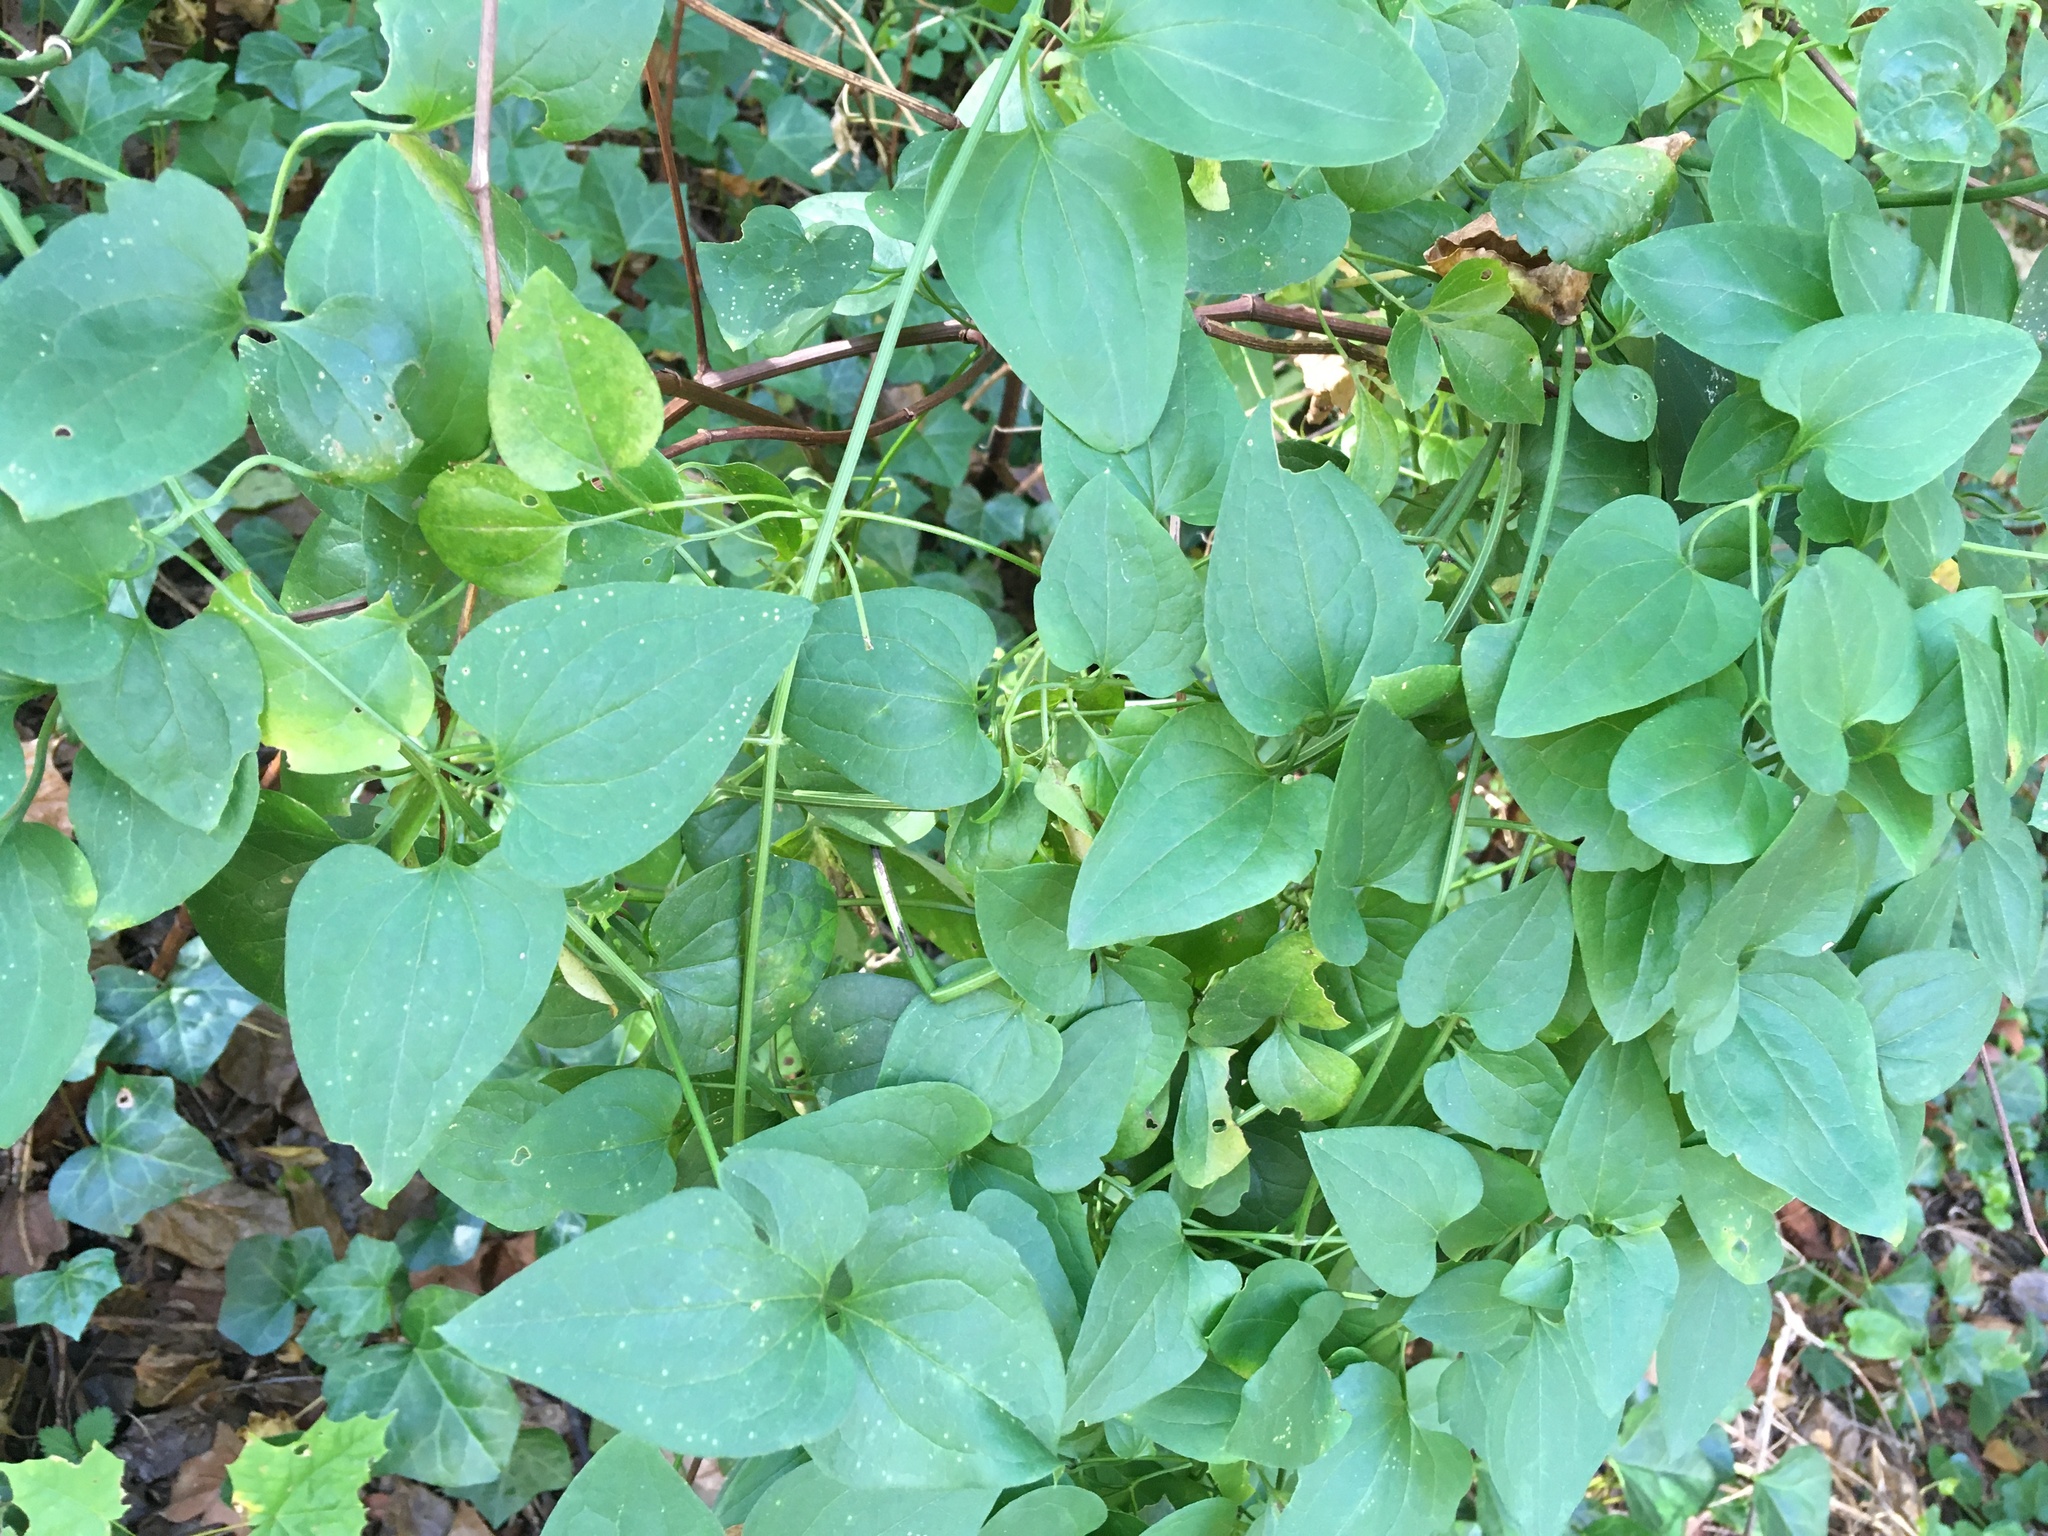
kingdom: Plantae
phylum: Tracheophyta
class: Magnoliopsida
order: Ranunculales
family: Ranunculaceae
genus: Clematis
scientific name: Clematis terniflora
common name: Sweet autumn clematis
